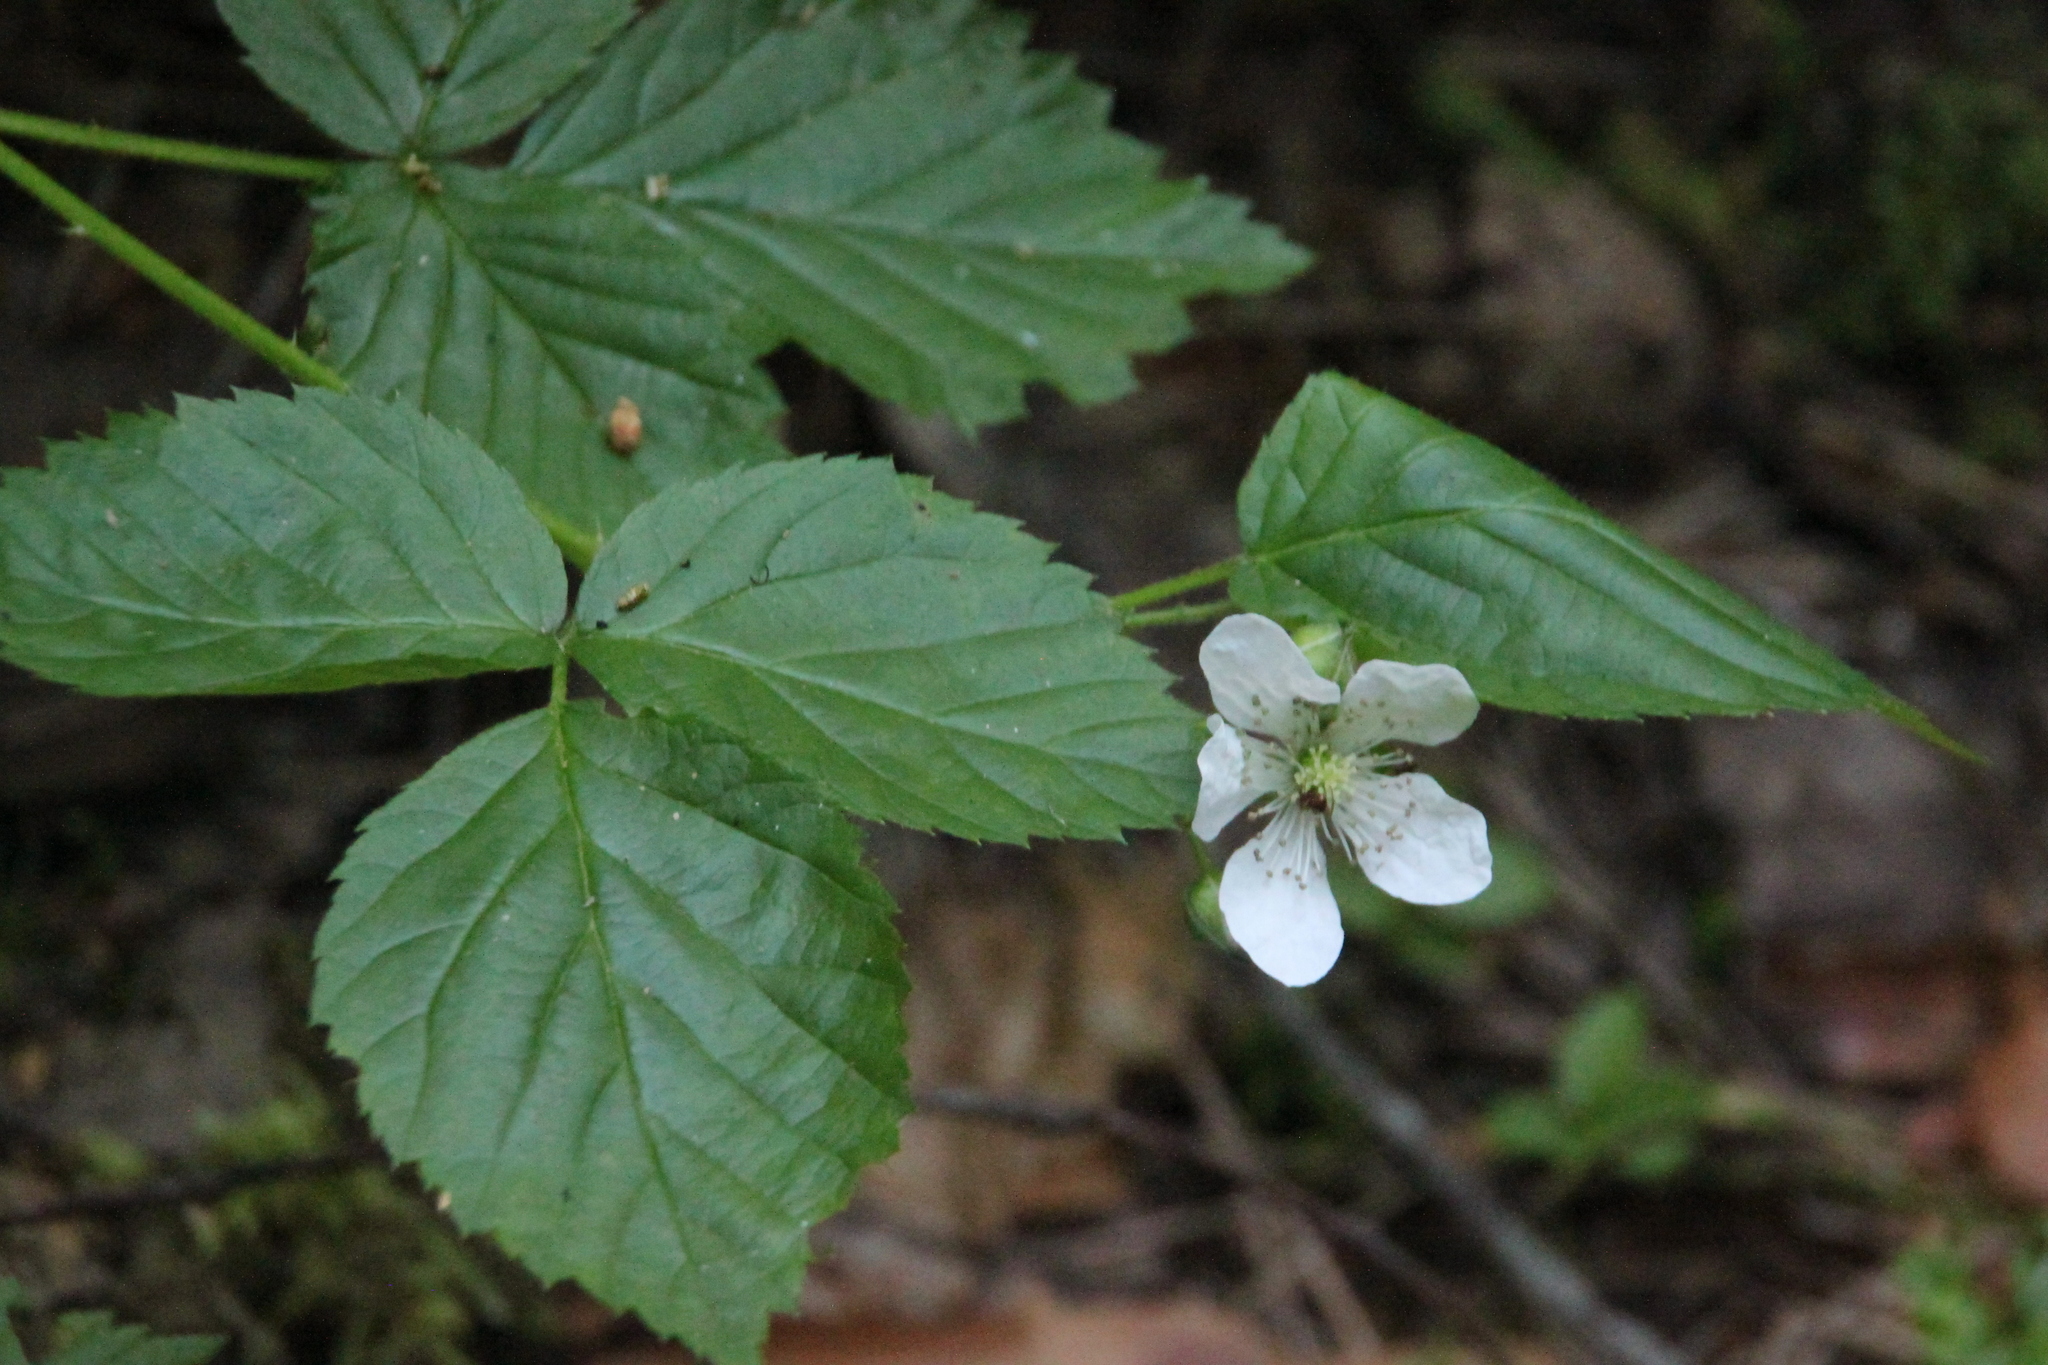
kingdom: Plantae
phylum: Tracheophyta
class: Magnoliopsida
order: Rosales
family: Rosaceae
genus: Rubus
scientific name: Rubus polonicus
